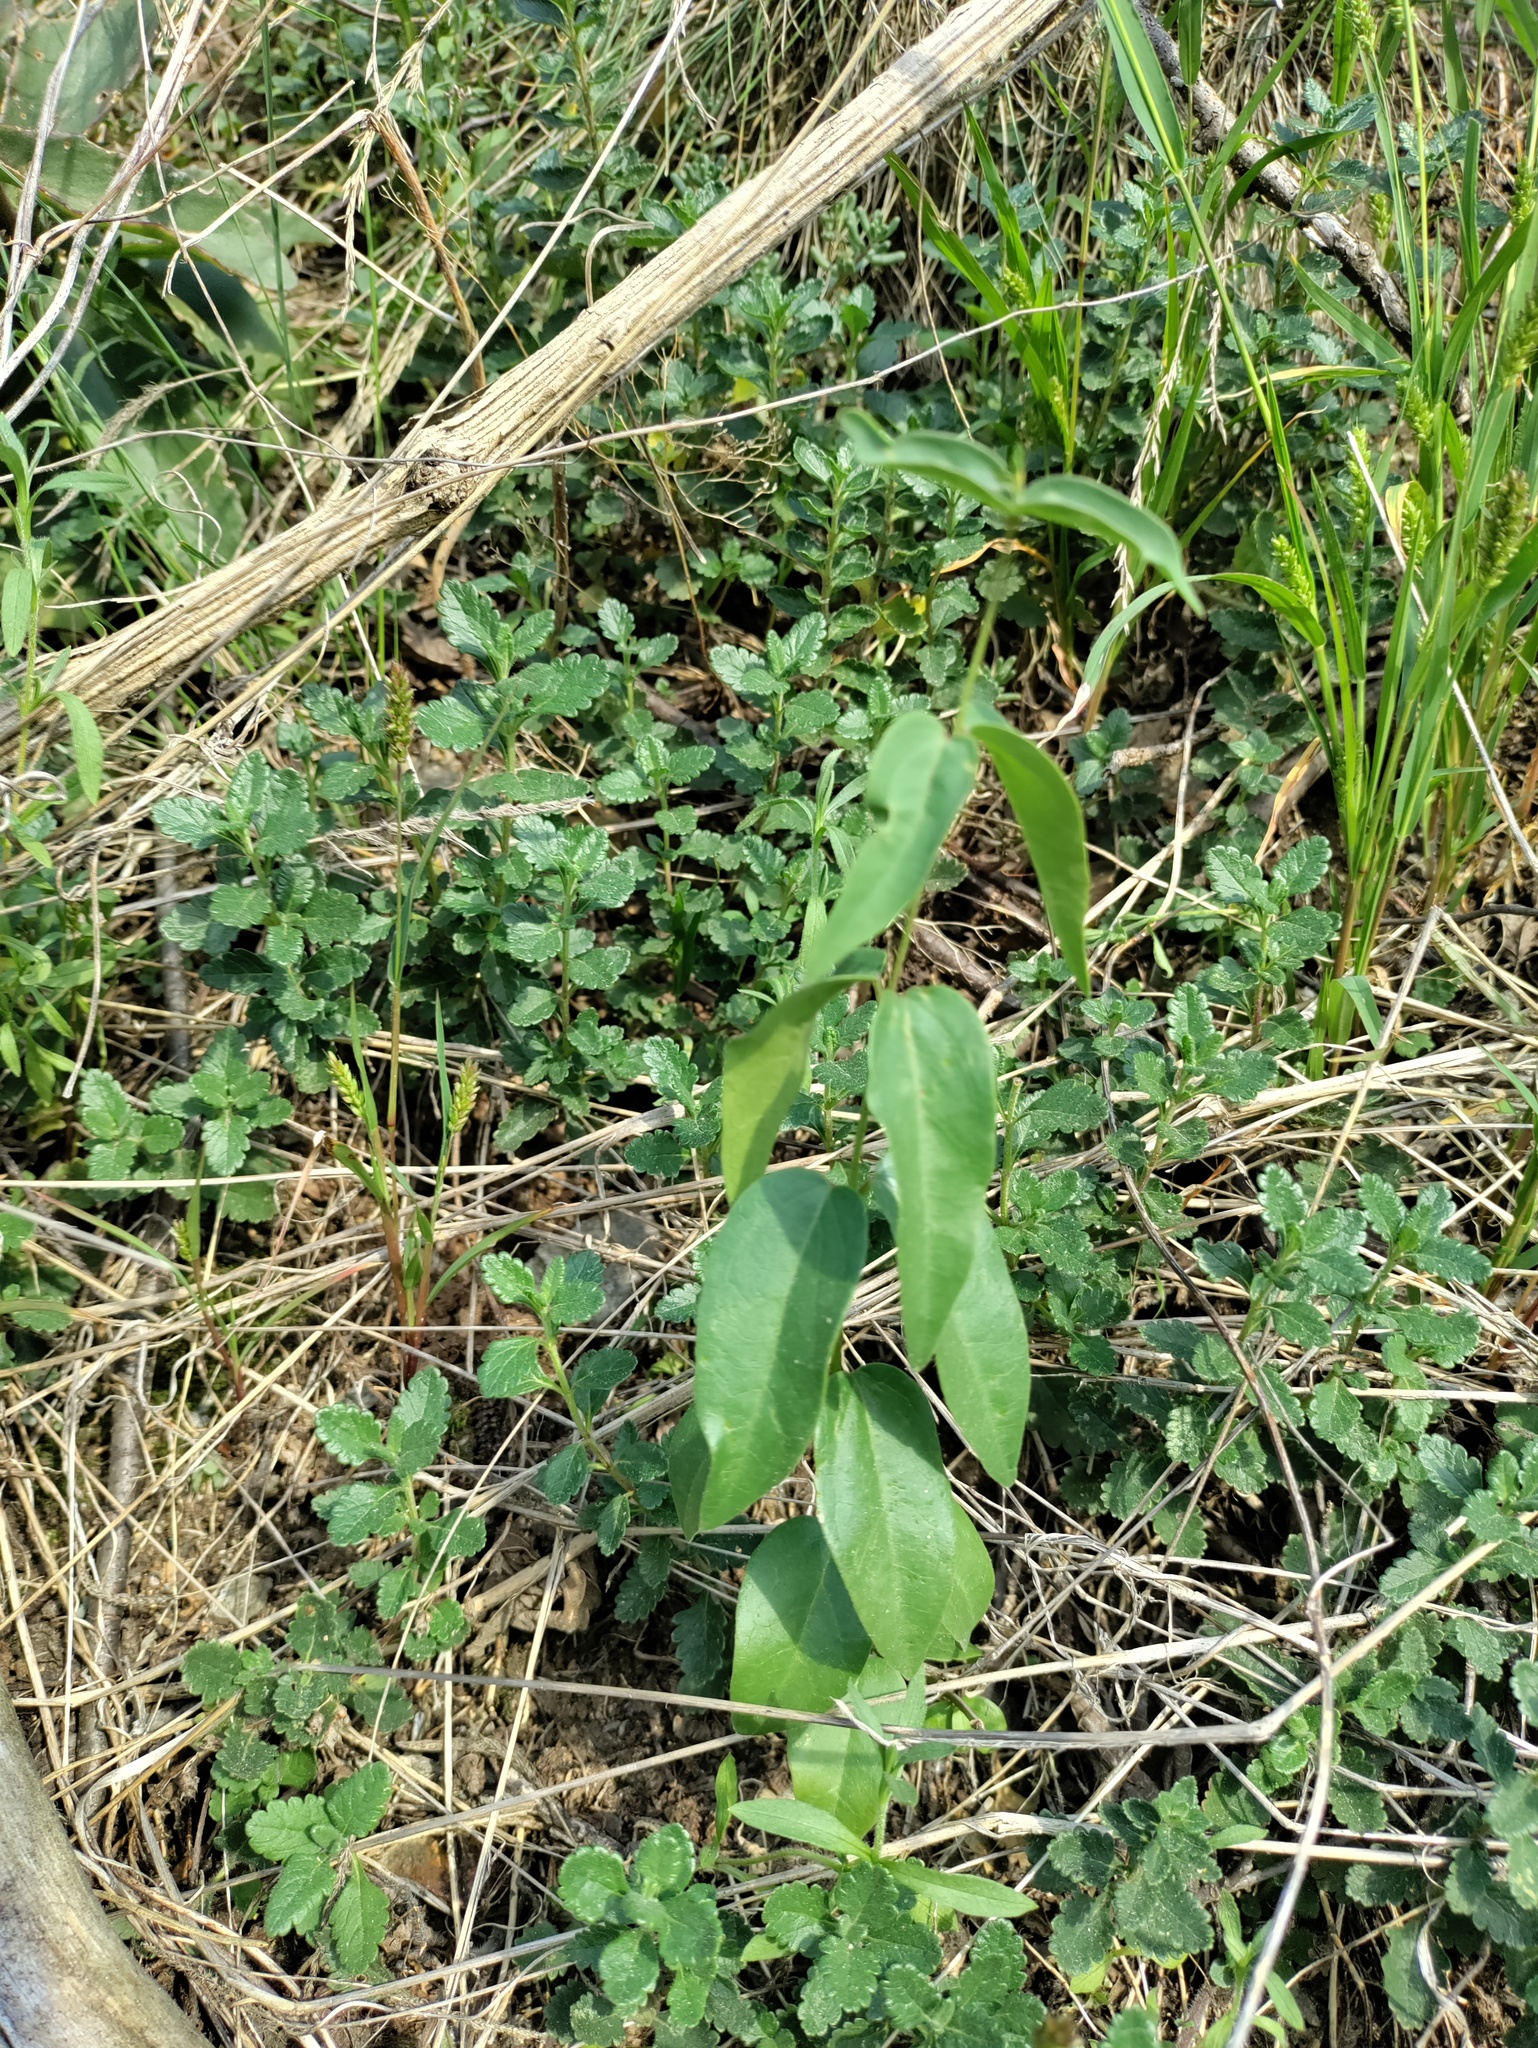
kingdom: Plantae
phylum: Tracheophyta
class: Magnoliopsida
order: Gentianales
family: Apocynaceae
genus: Vincetoxicum
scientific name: Vincetoxicum hirundinaria
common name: White swallowwort
